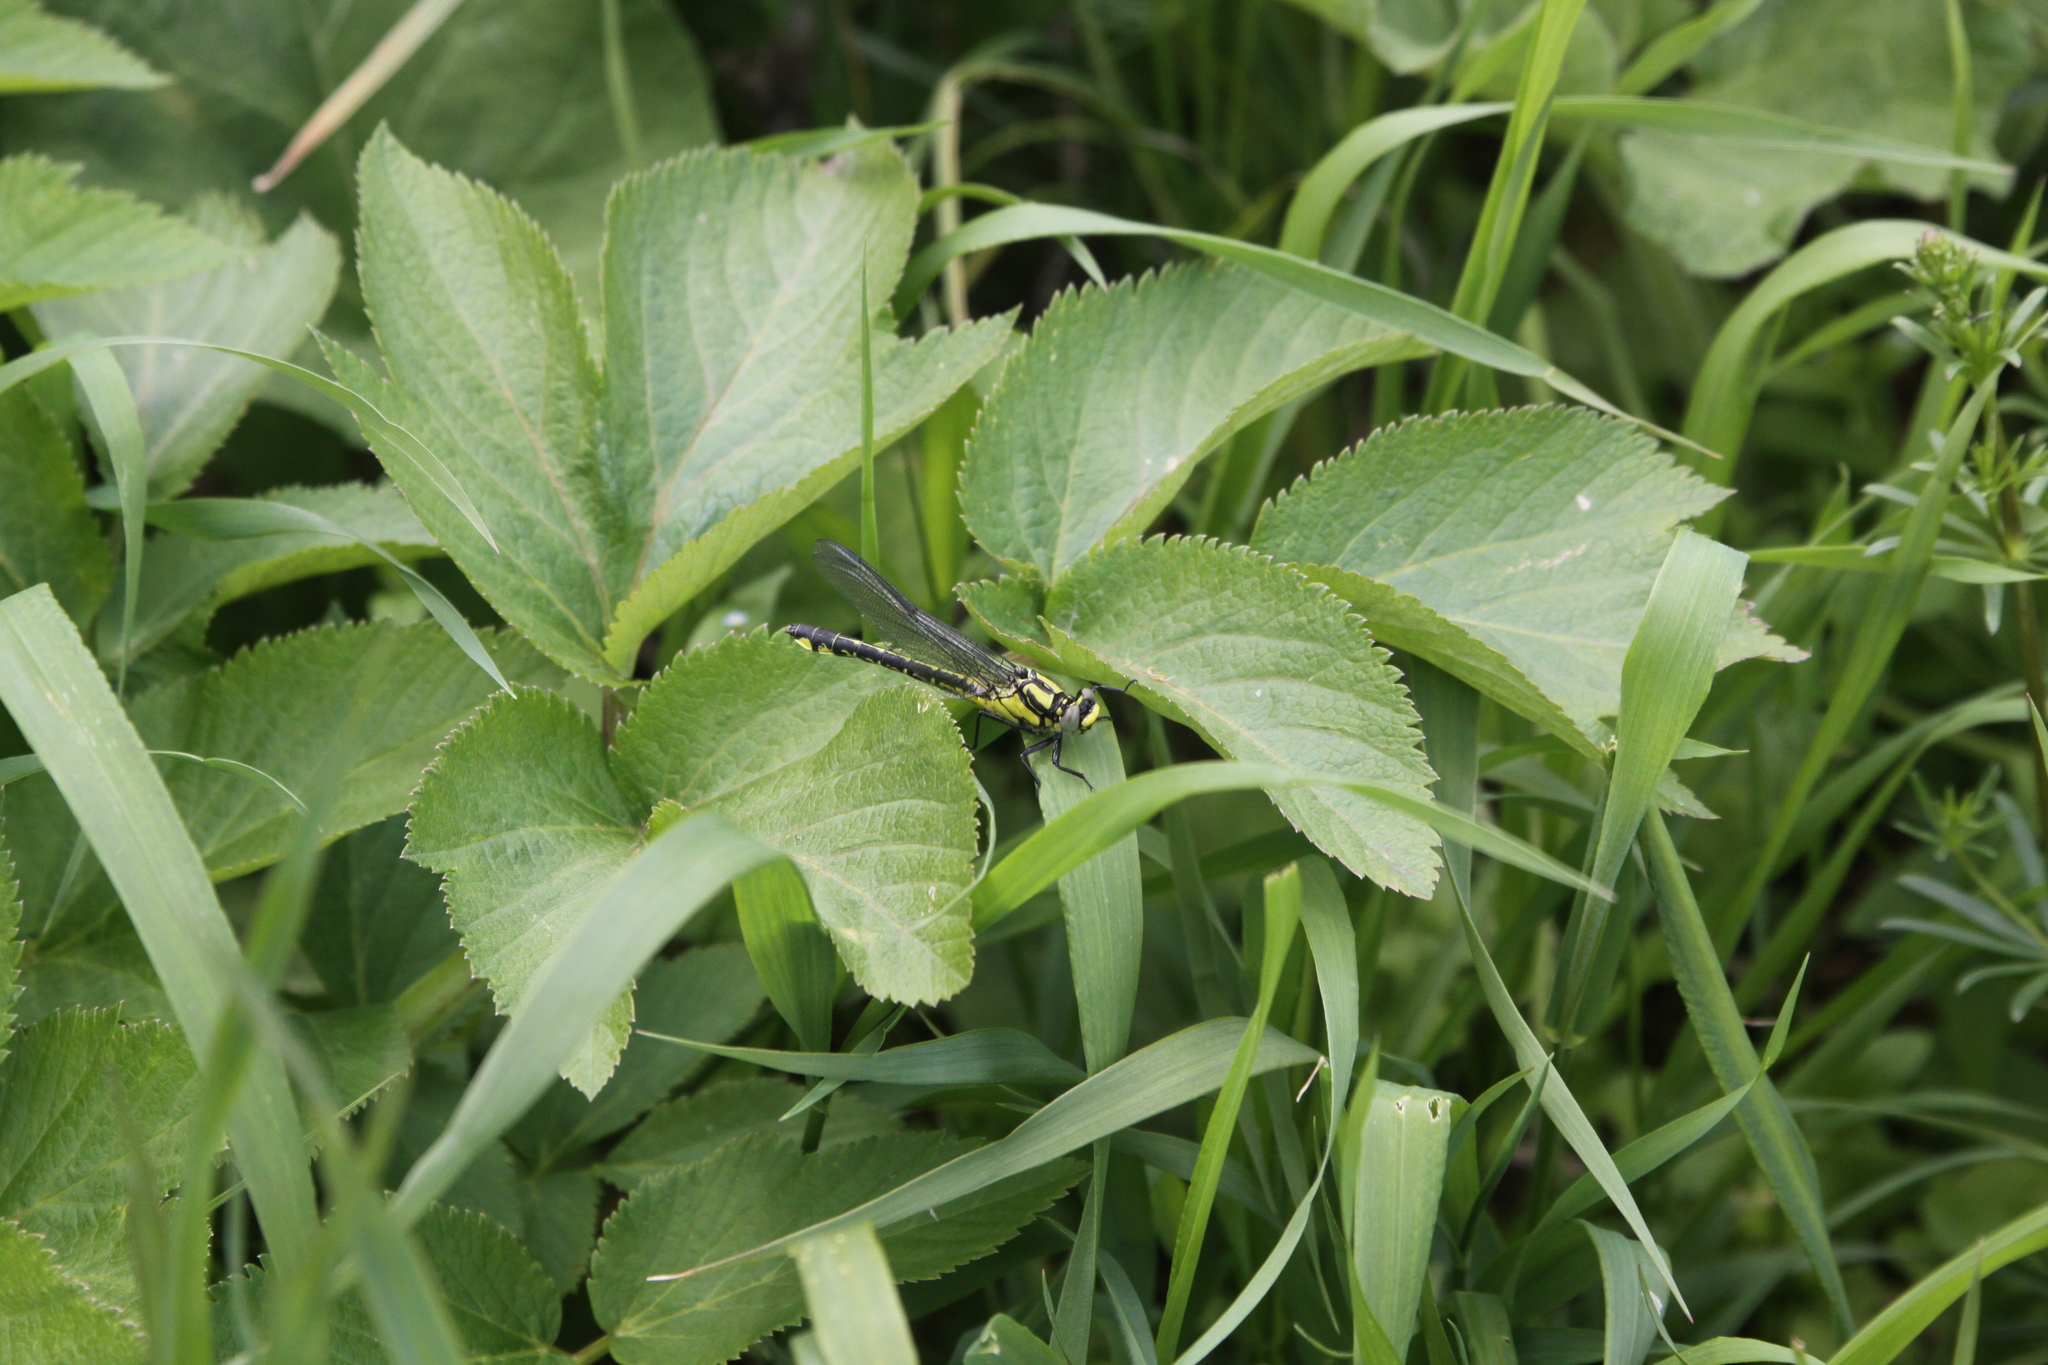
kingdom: Animalia
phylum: Arthropoda
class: Insecta
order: Odonata
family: Gomphidae
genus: Gomphus
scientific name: Gomphus vulgatissimus
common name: Club-tailed dragonfly
